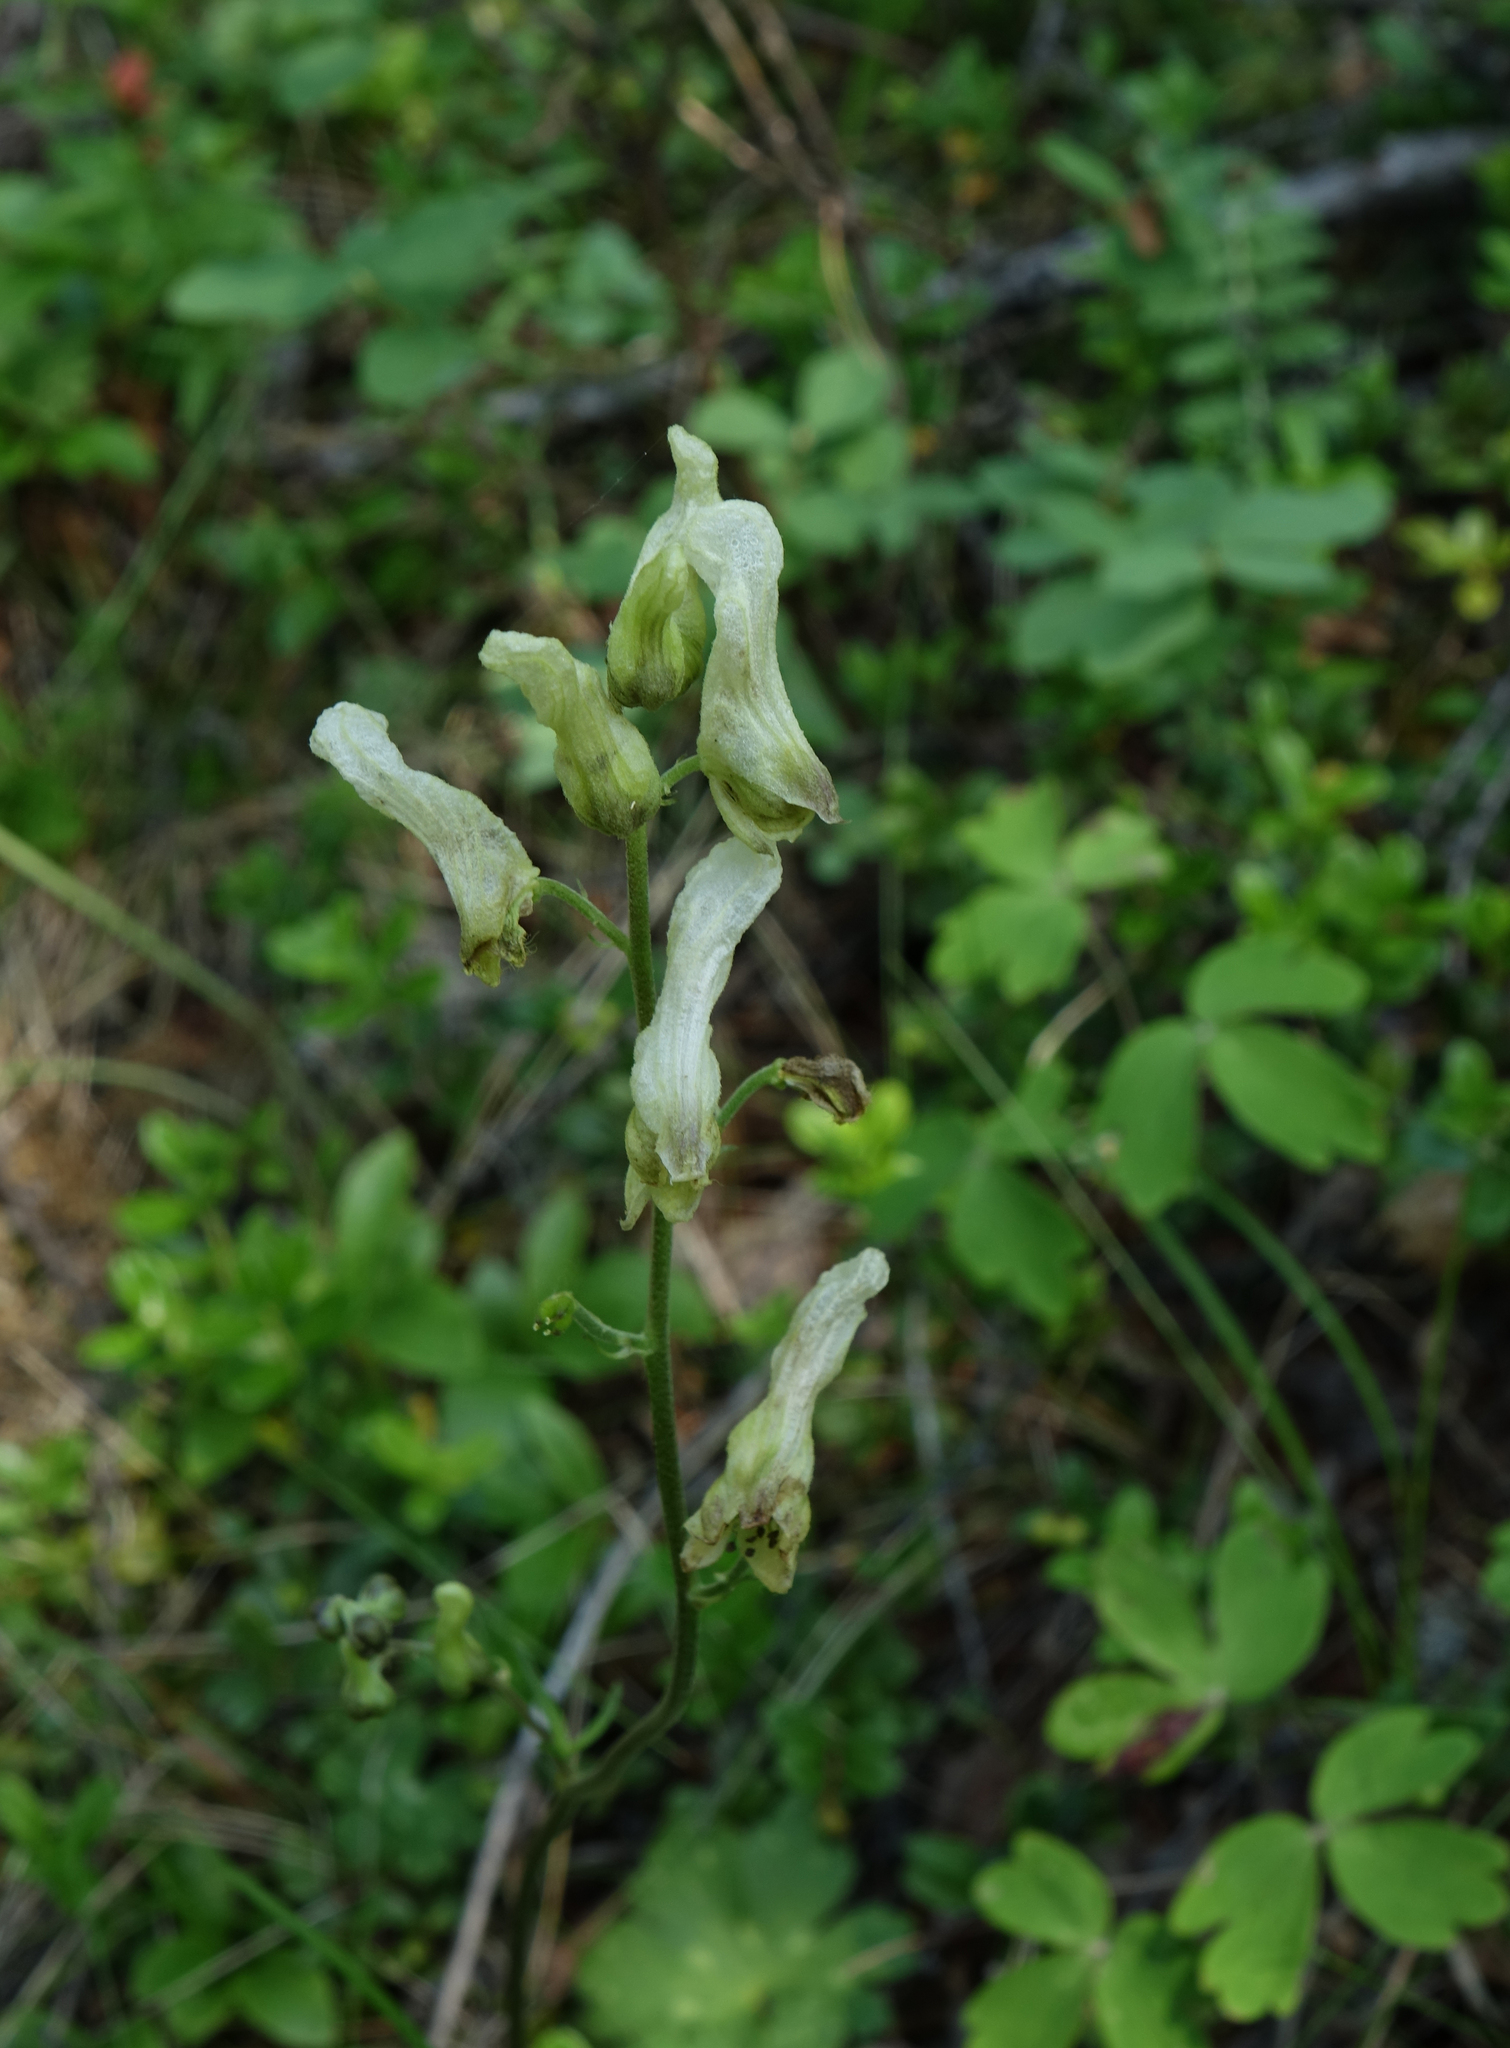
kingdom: Plantae
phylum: Tracheophyta
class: Magnoliopsida
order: Ranunculales
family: Ranunculaceae
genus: Aconitum
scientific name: Aconitum barbatum
